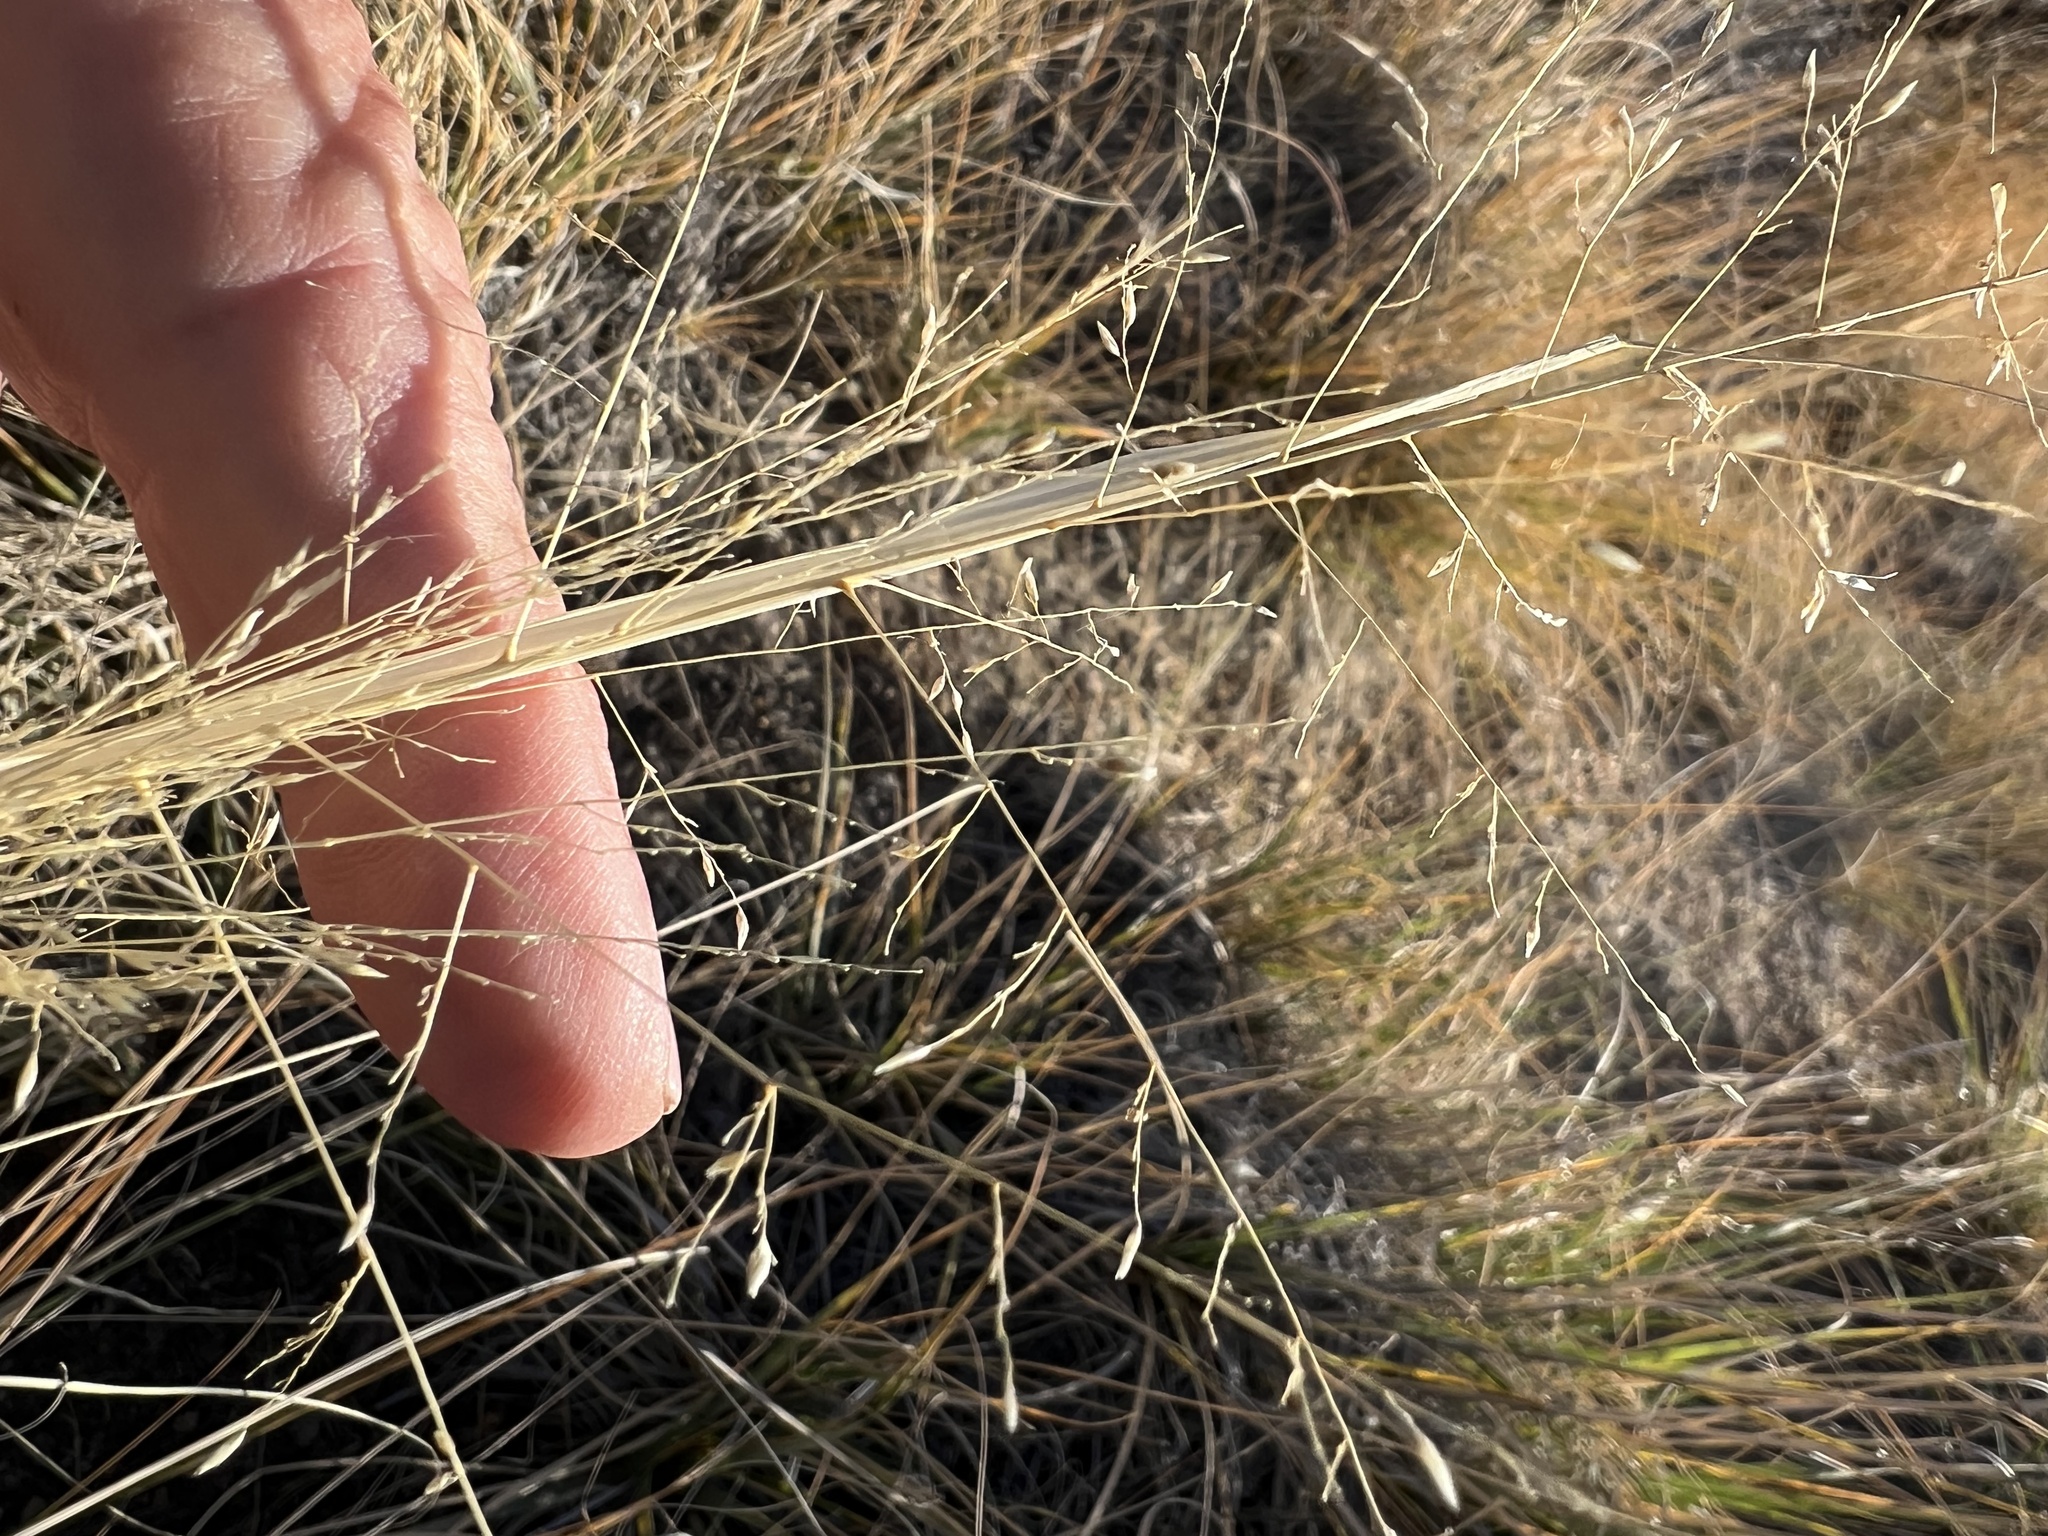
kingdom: Plantae
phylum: Tracheophyta
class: Liliopsida
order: Poales
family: Poaceae
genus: Sporobolus
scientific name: Sporobolus airoides
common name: Alkali sacaton
